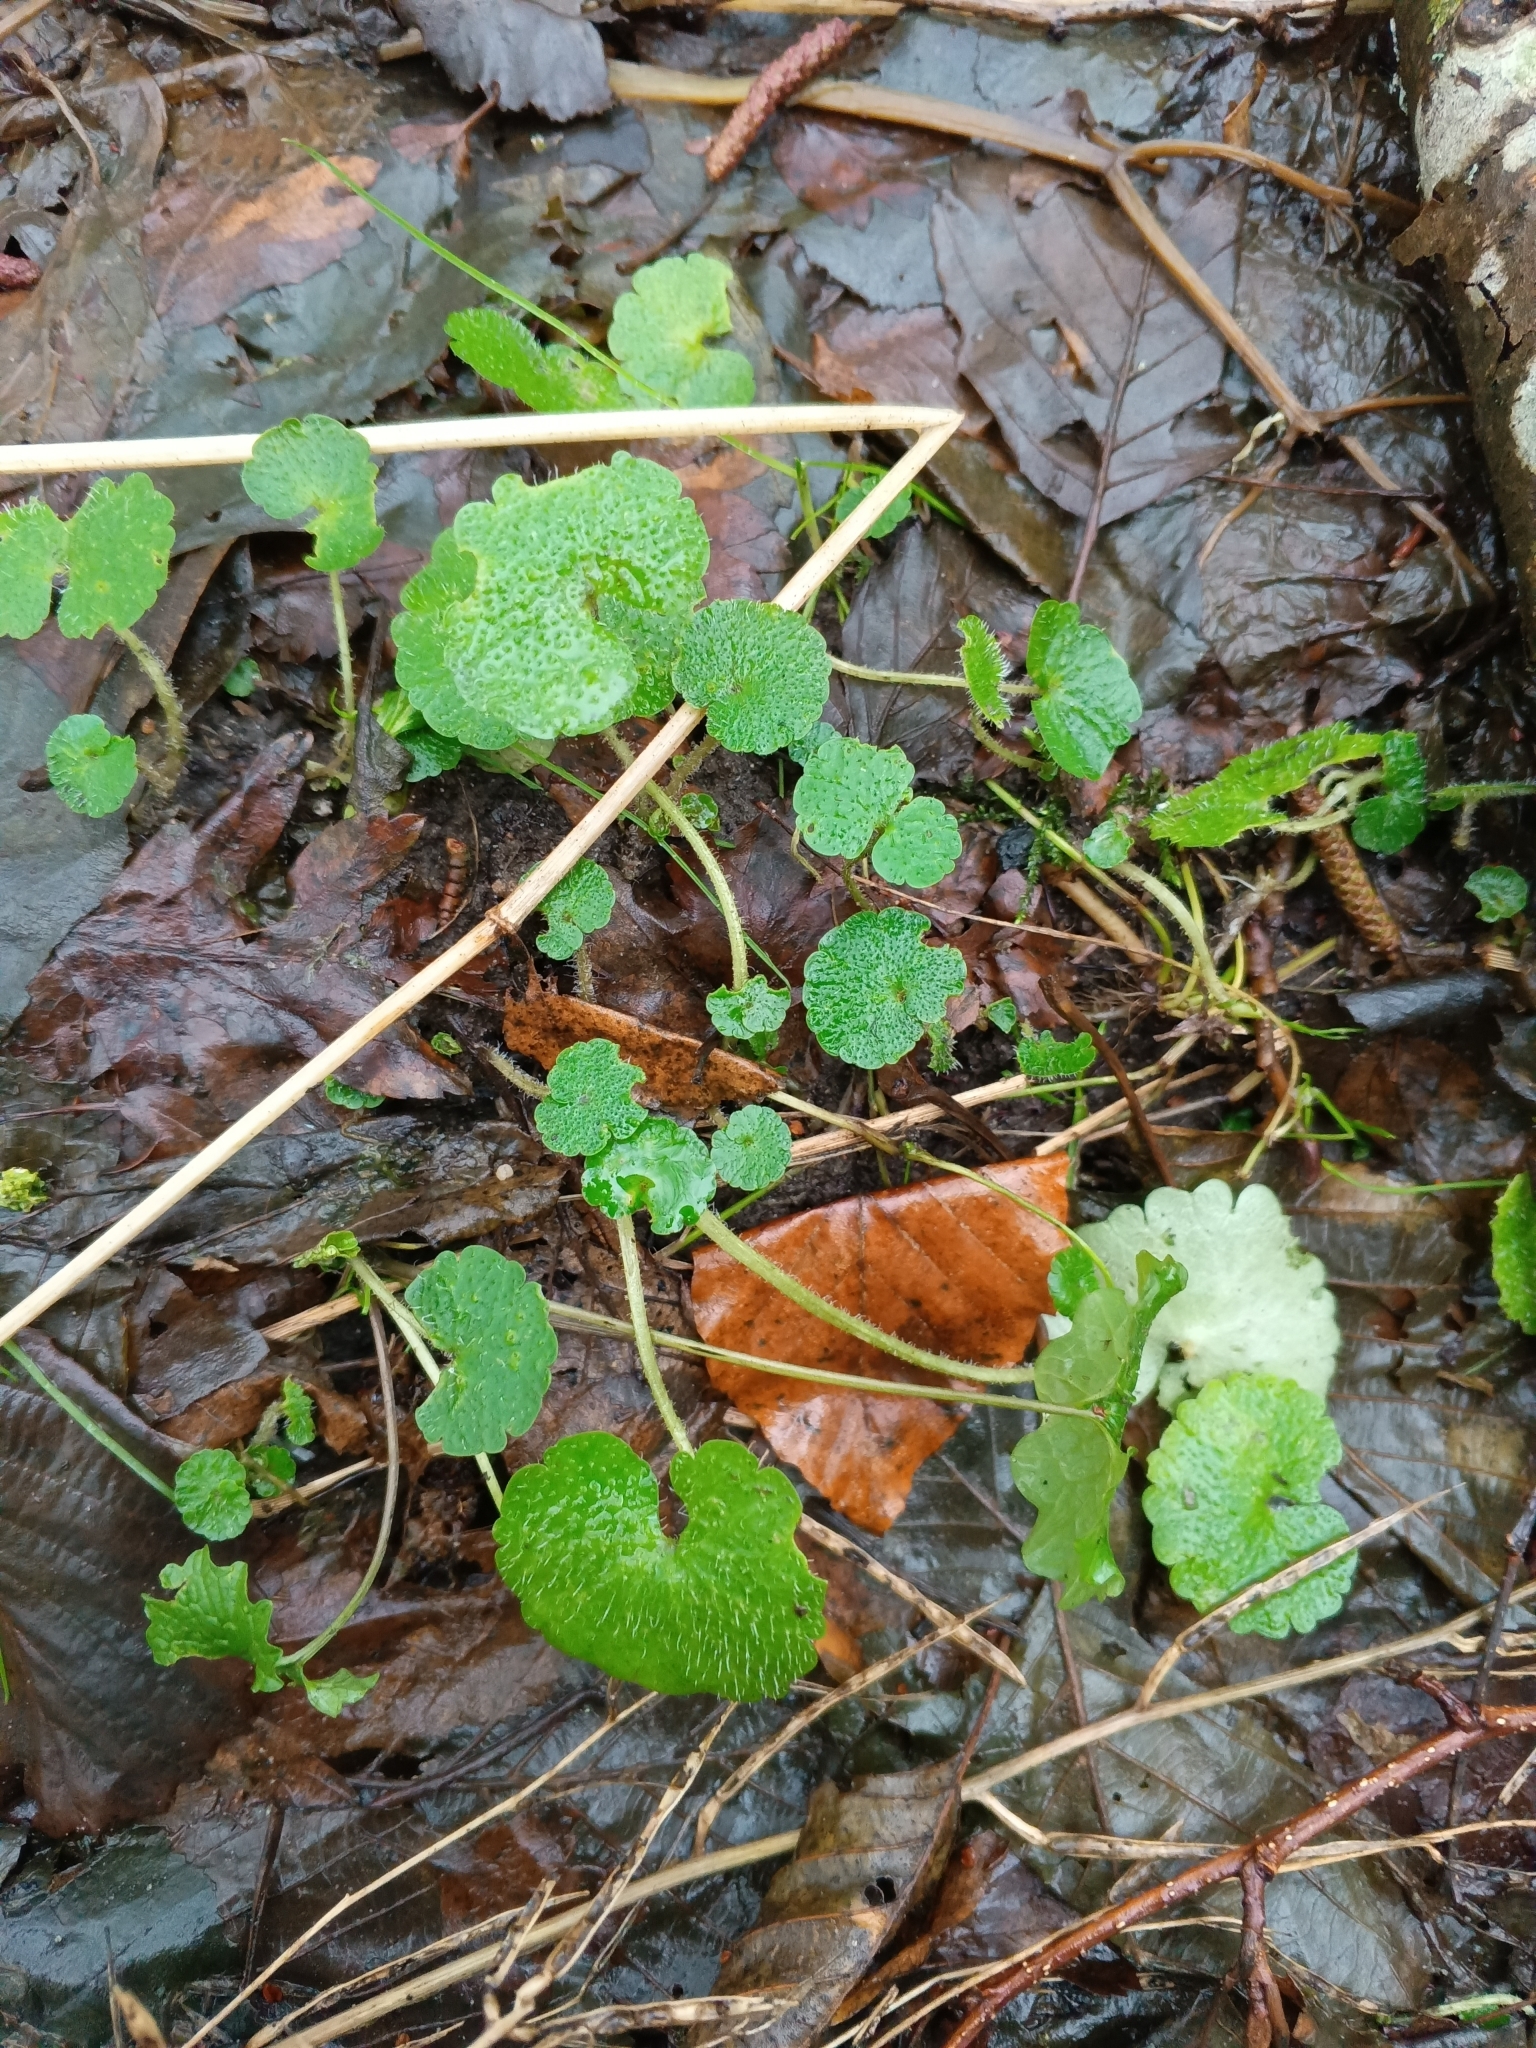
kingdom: Plantae
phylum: Tracheophyta
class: Magnoliopsida
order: Saxifragales
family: Saxifragaceae
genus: Chrysosplenium
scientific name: Chrysosplenium alternifolium
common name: Alternate-leaved golden-saxifrage
